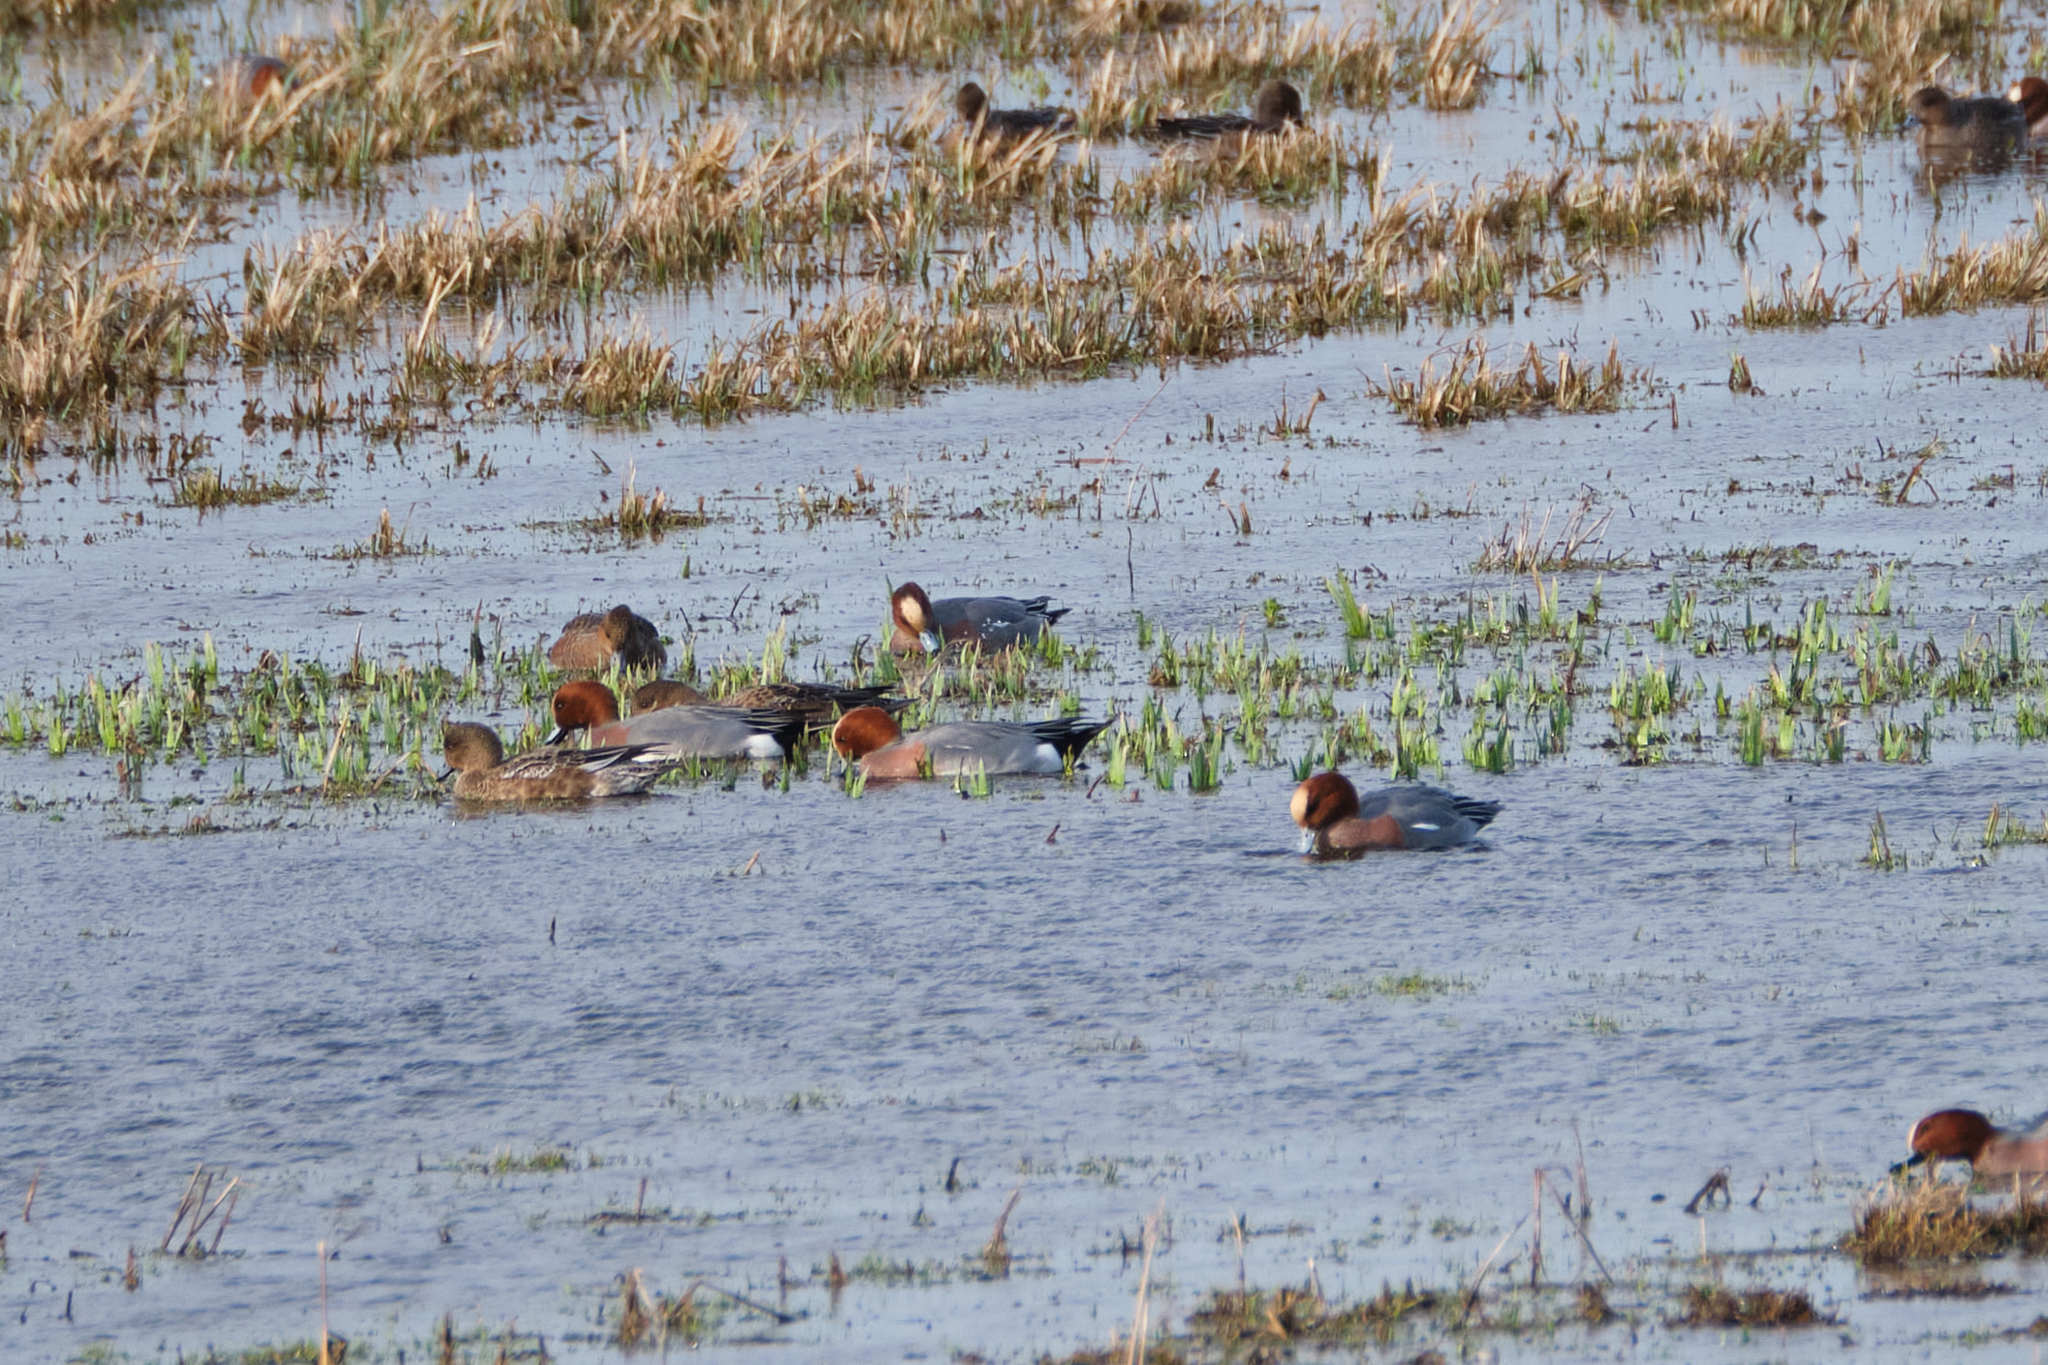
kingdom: Animalia
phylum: Chordata
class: Aves
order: Anseriformes
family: Anatidae
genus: Mareca
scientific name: Mareca penelope
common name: Eurasian wigeon
